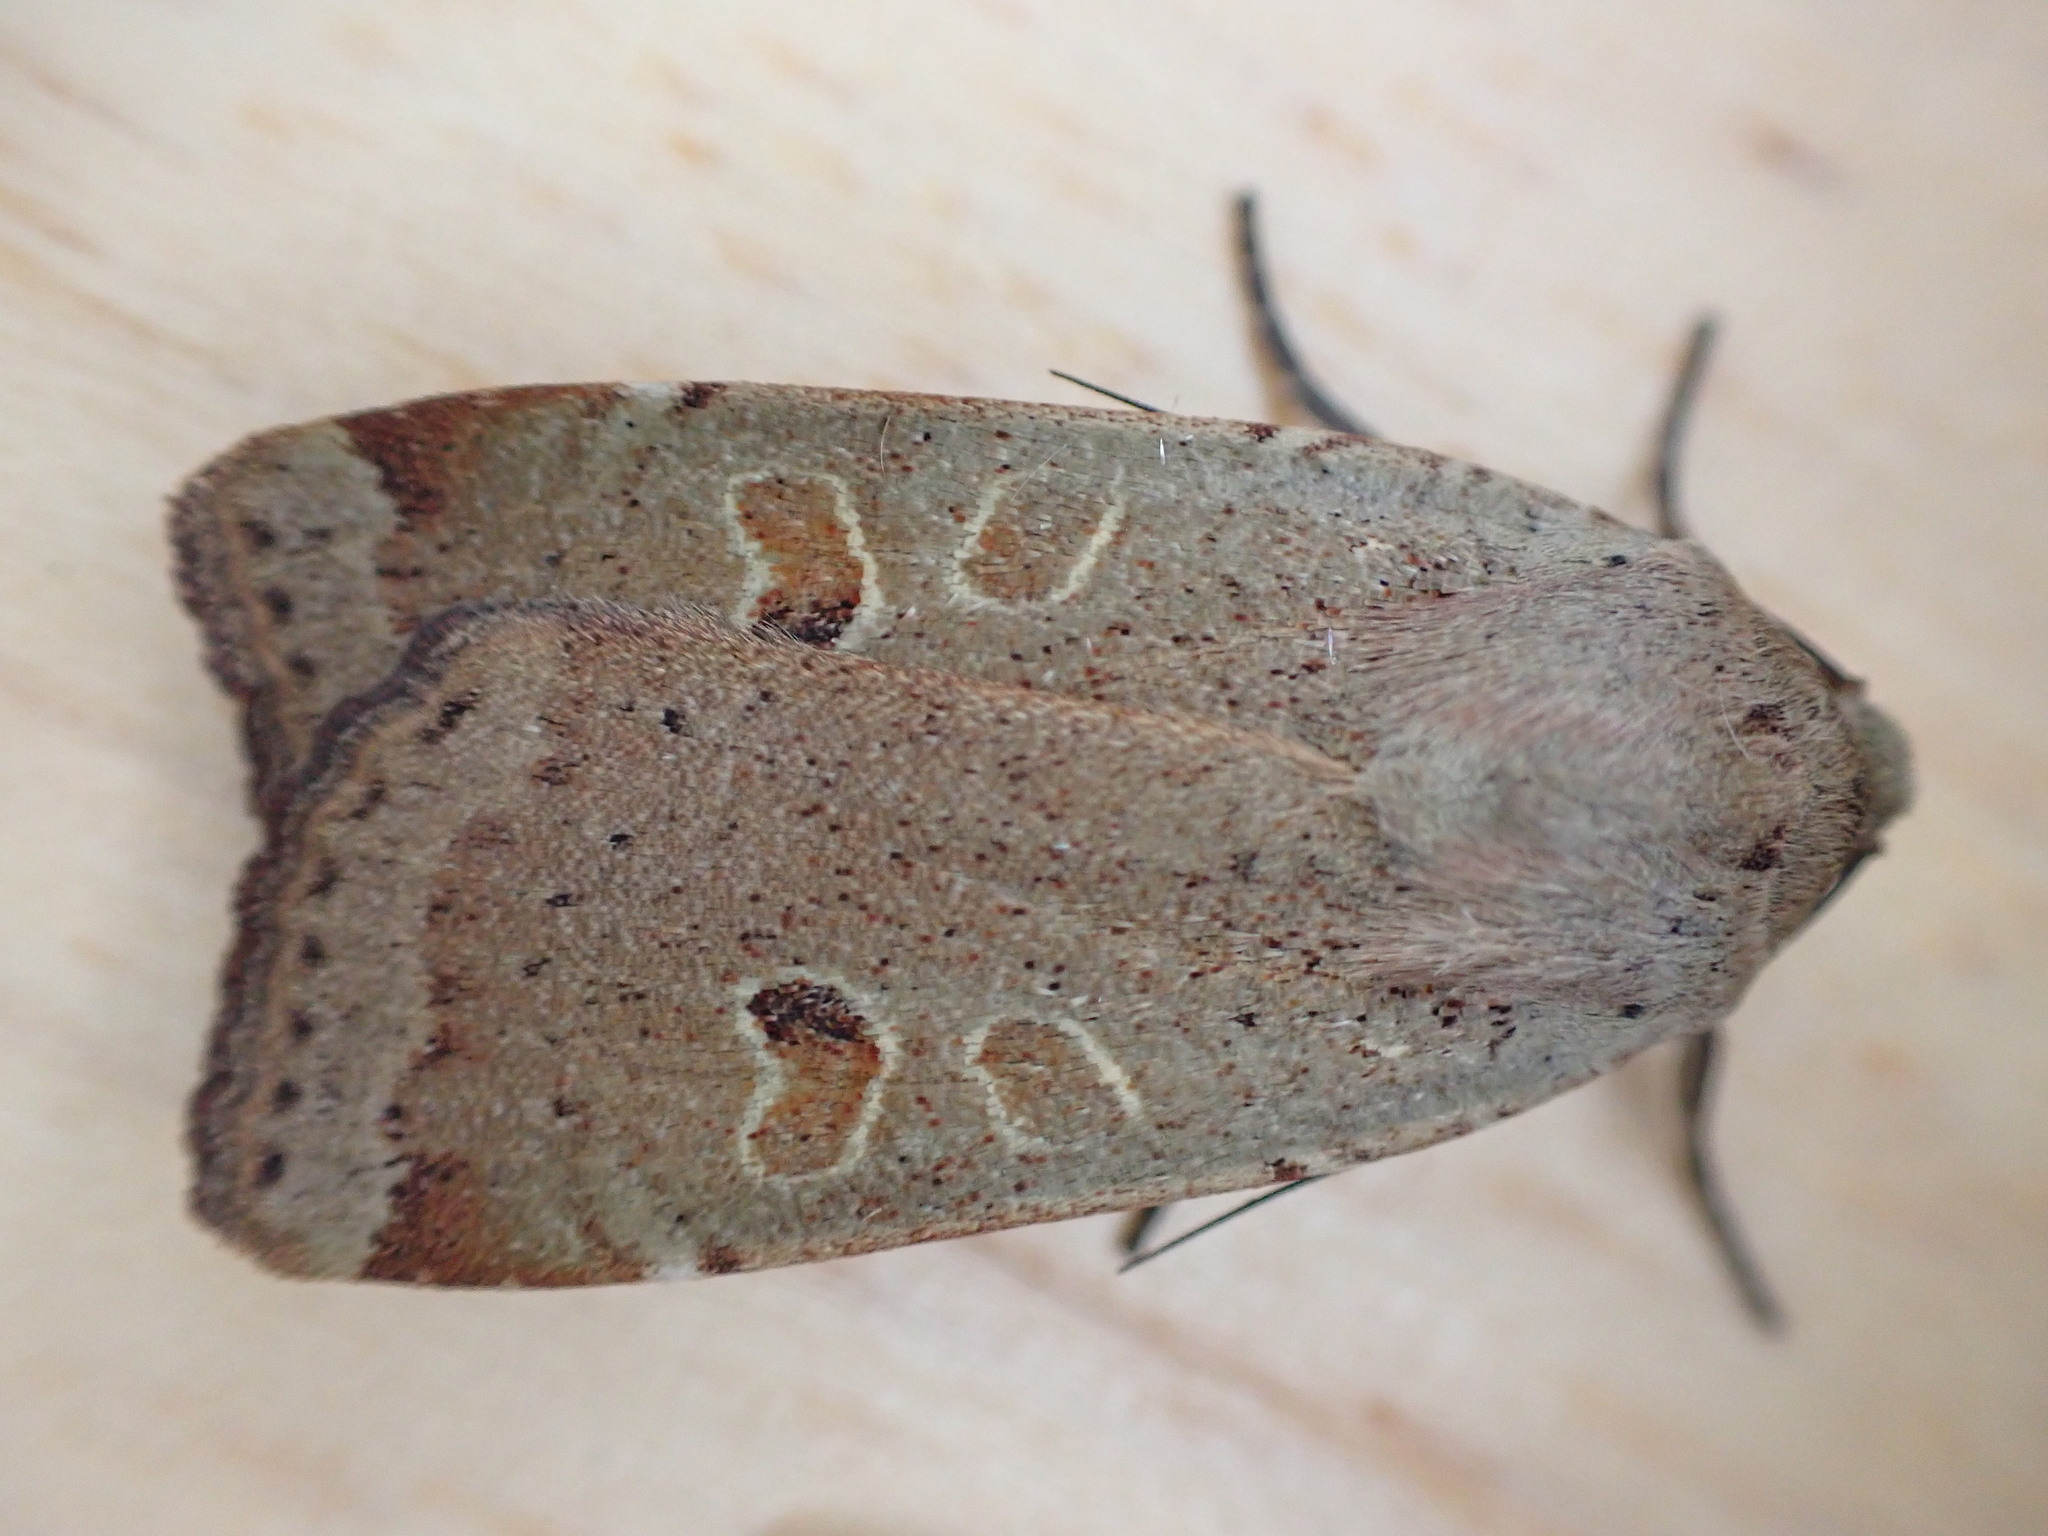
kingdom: Animalia
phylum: Arthropoda
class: Insecta
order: Lepidoptera
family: Noctuidae
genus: Noctua
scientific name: Noctua comes
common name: Lesser yellow underwing
